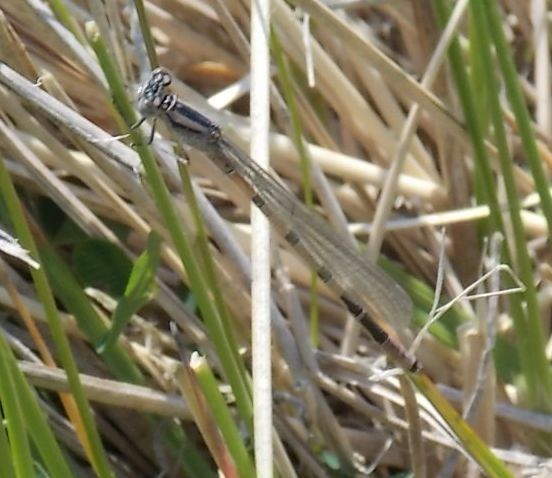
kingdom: Animalia
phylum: Arthropoda
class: Insecta
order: Odonata
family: Coenagrionidae
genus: Enallagma
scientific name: Enallagma cyathigerum
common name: Common blue damselfly
